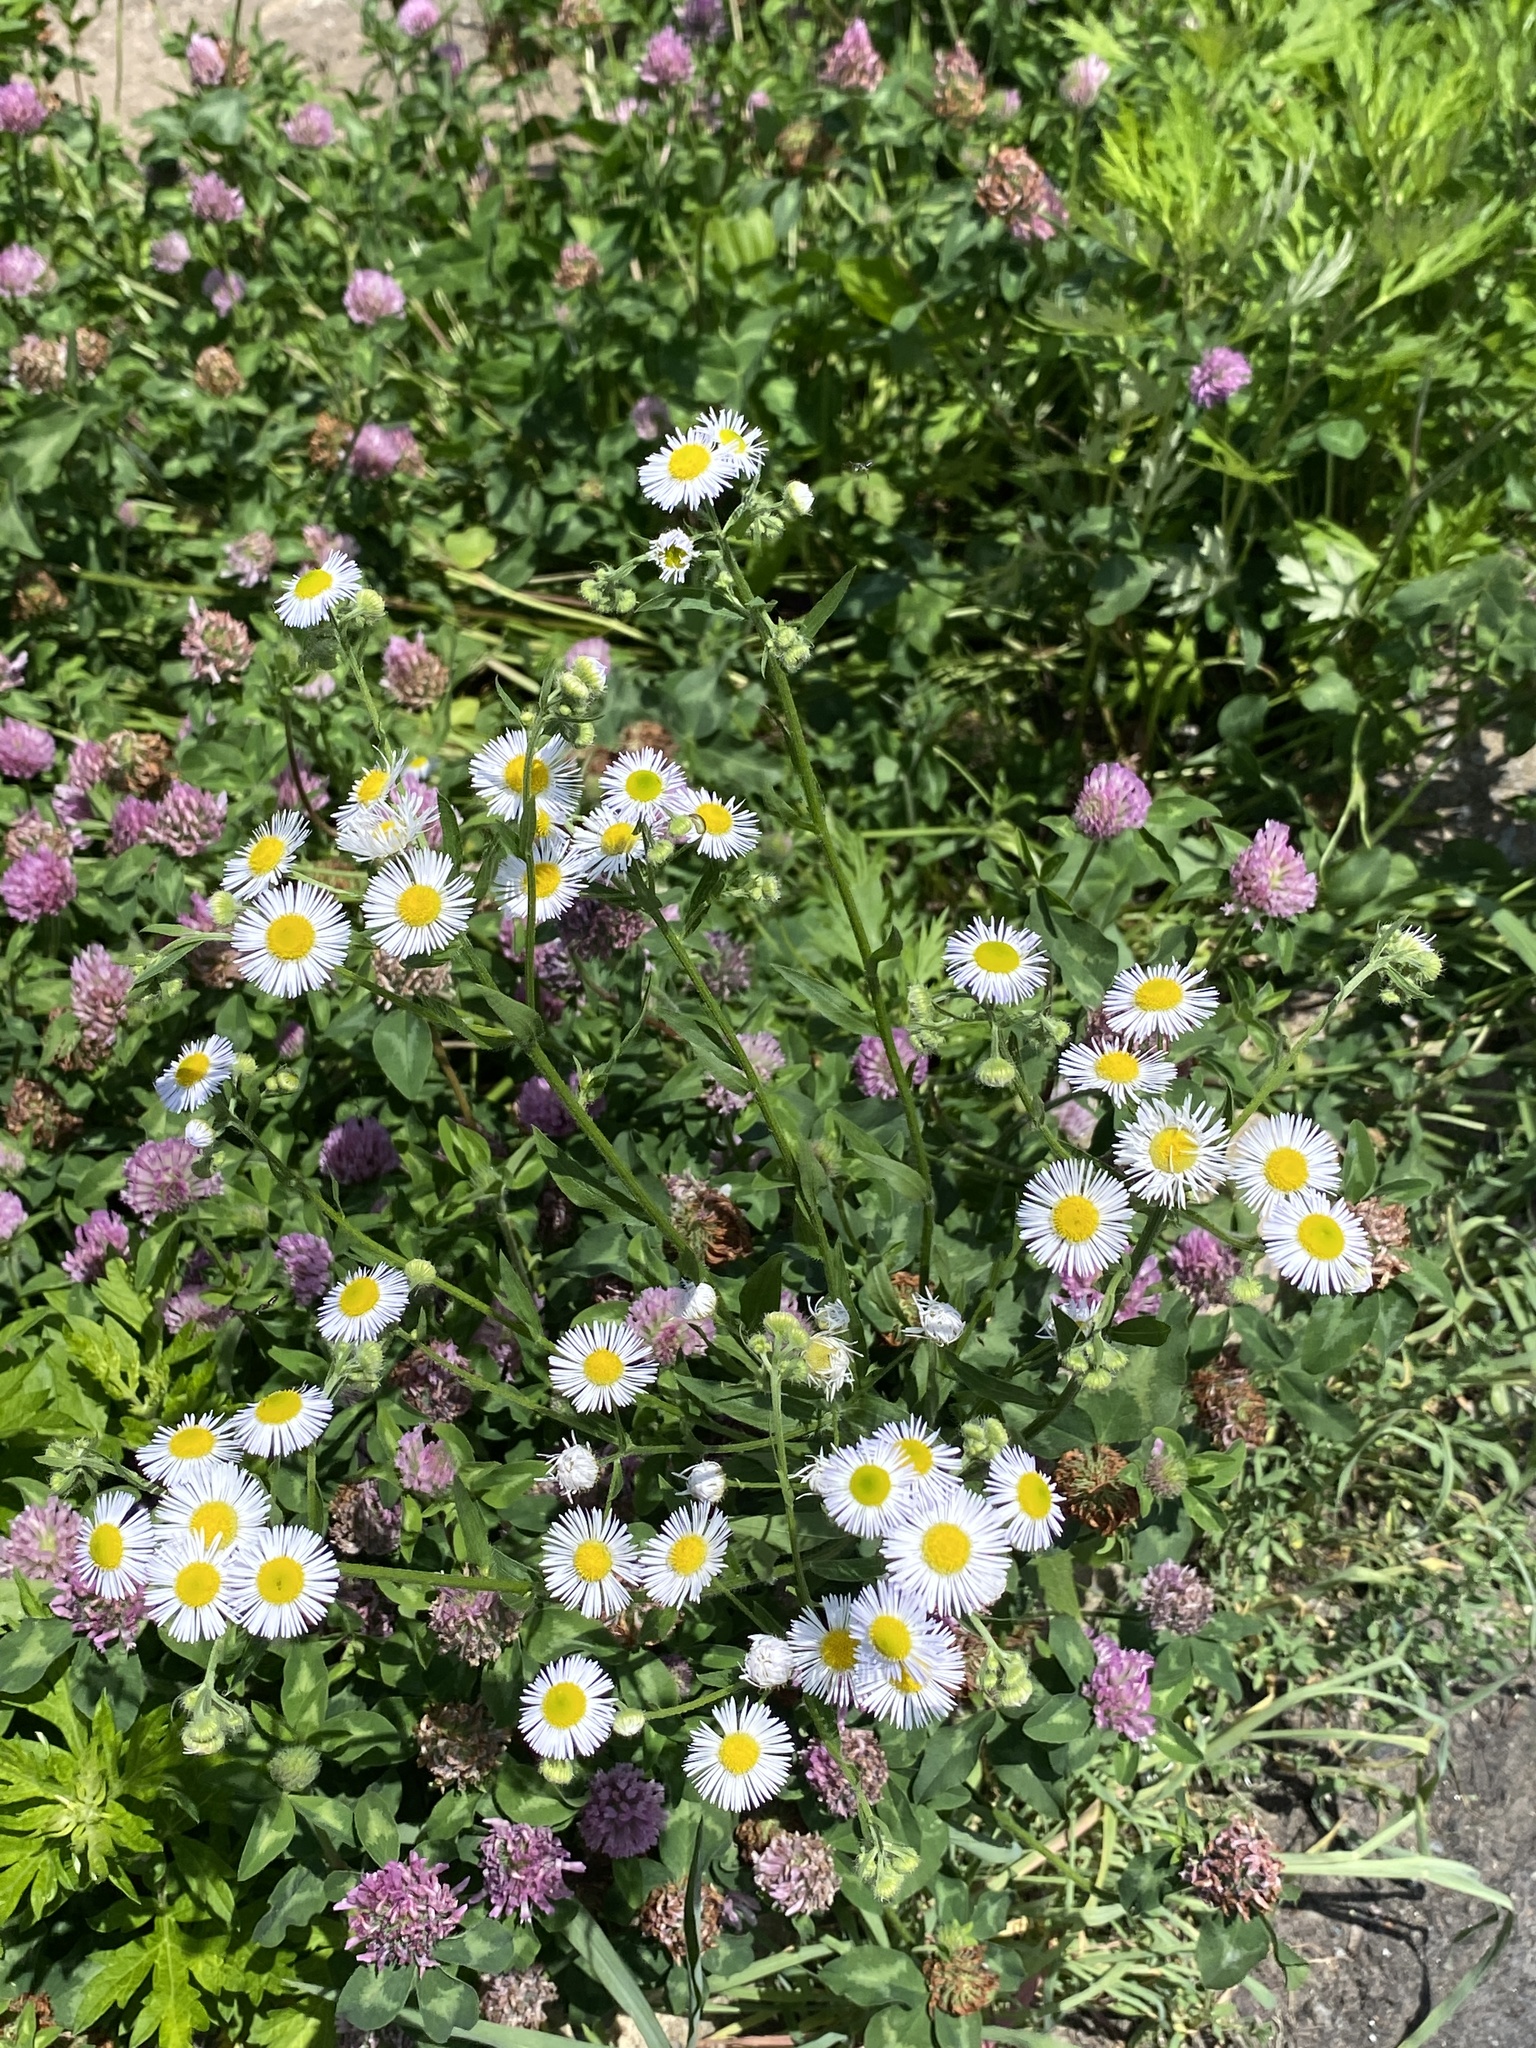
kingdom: Plantae
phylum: Tracheophyta
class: Magnoliopsida
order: Asterales
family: Asteraceae
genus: Erigeron
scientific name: Erigeron annuus
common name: Tall fleabane
